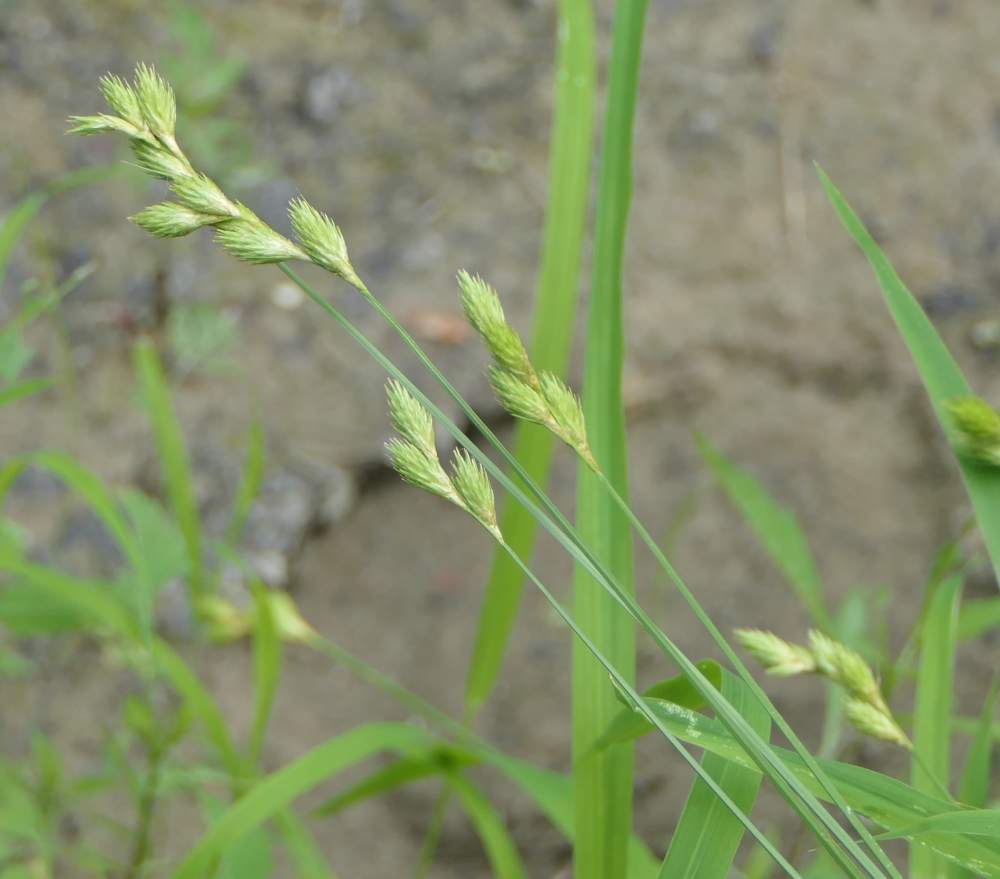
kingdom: Plantae
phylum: Tracheophyta
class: Liliopsida
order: Poales
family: Cyperaceae
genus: Carex
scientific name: Carex scoparia
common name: Broom sedge
